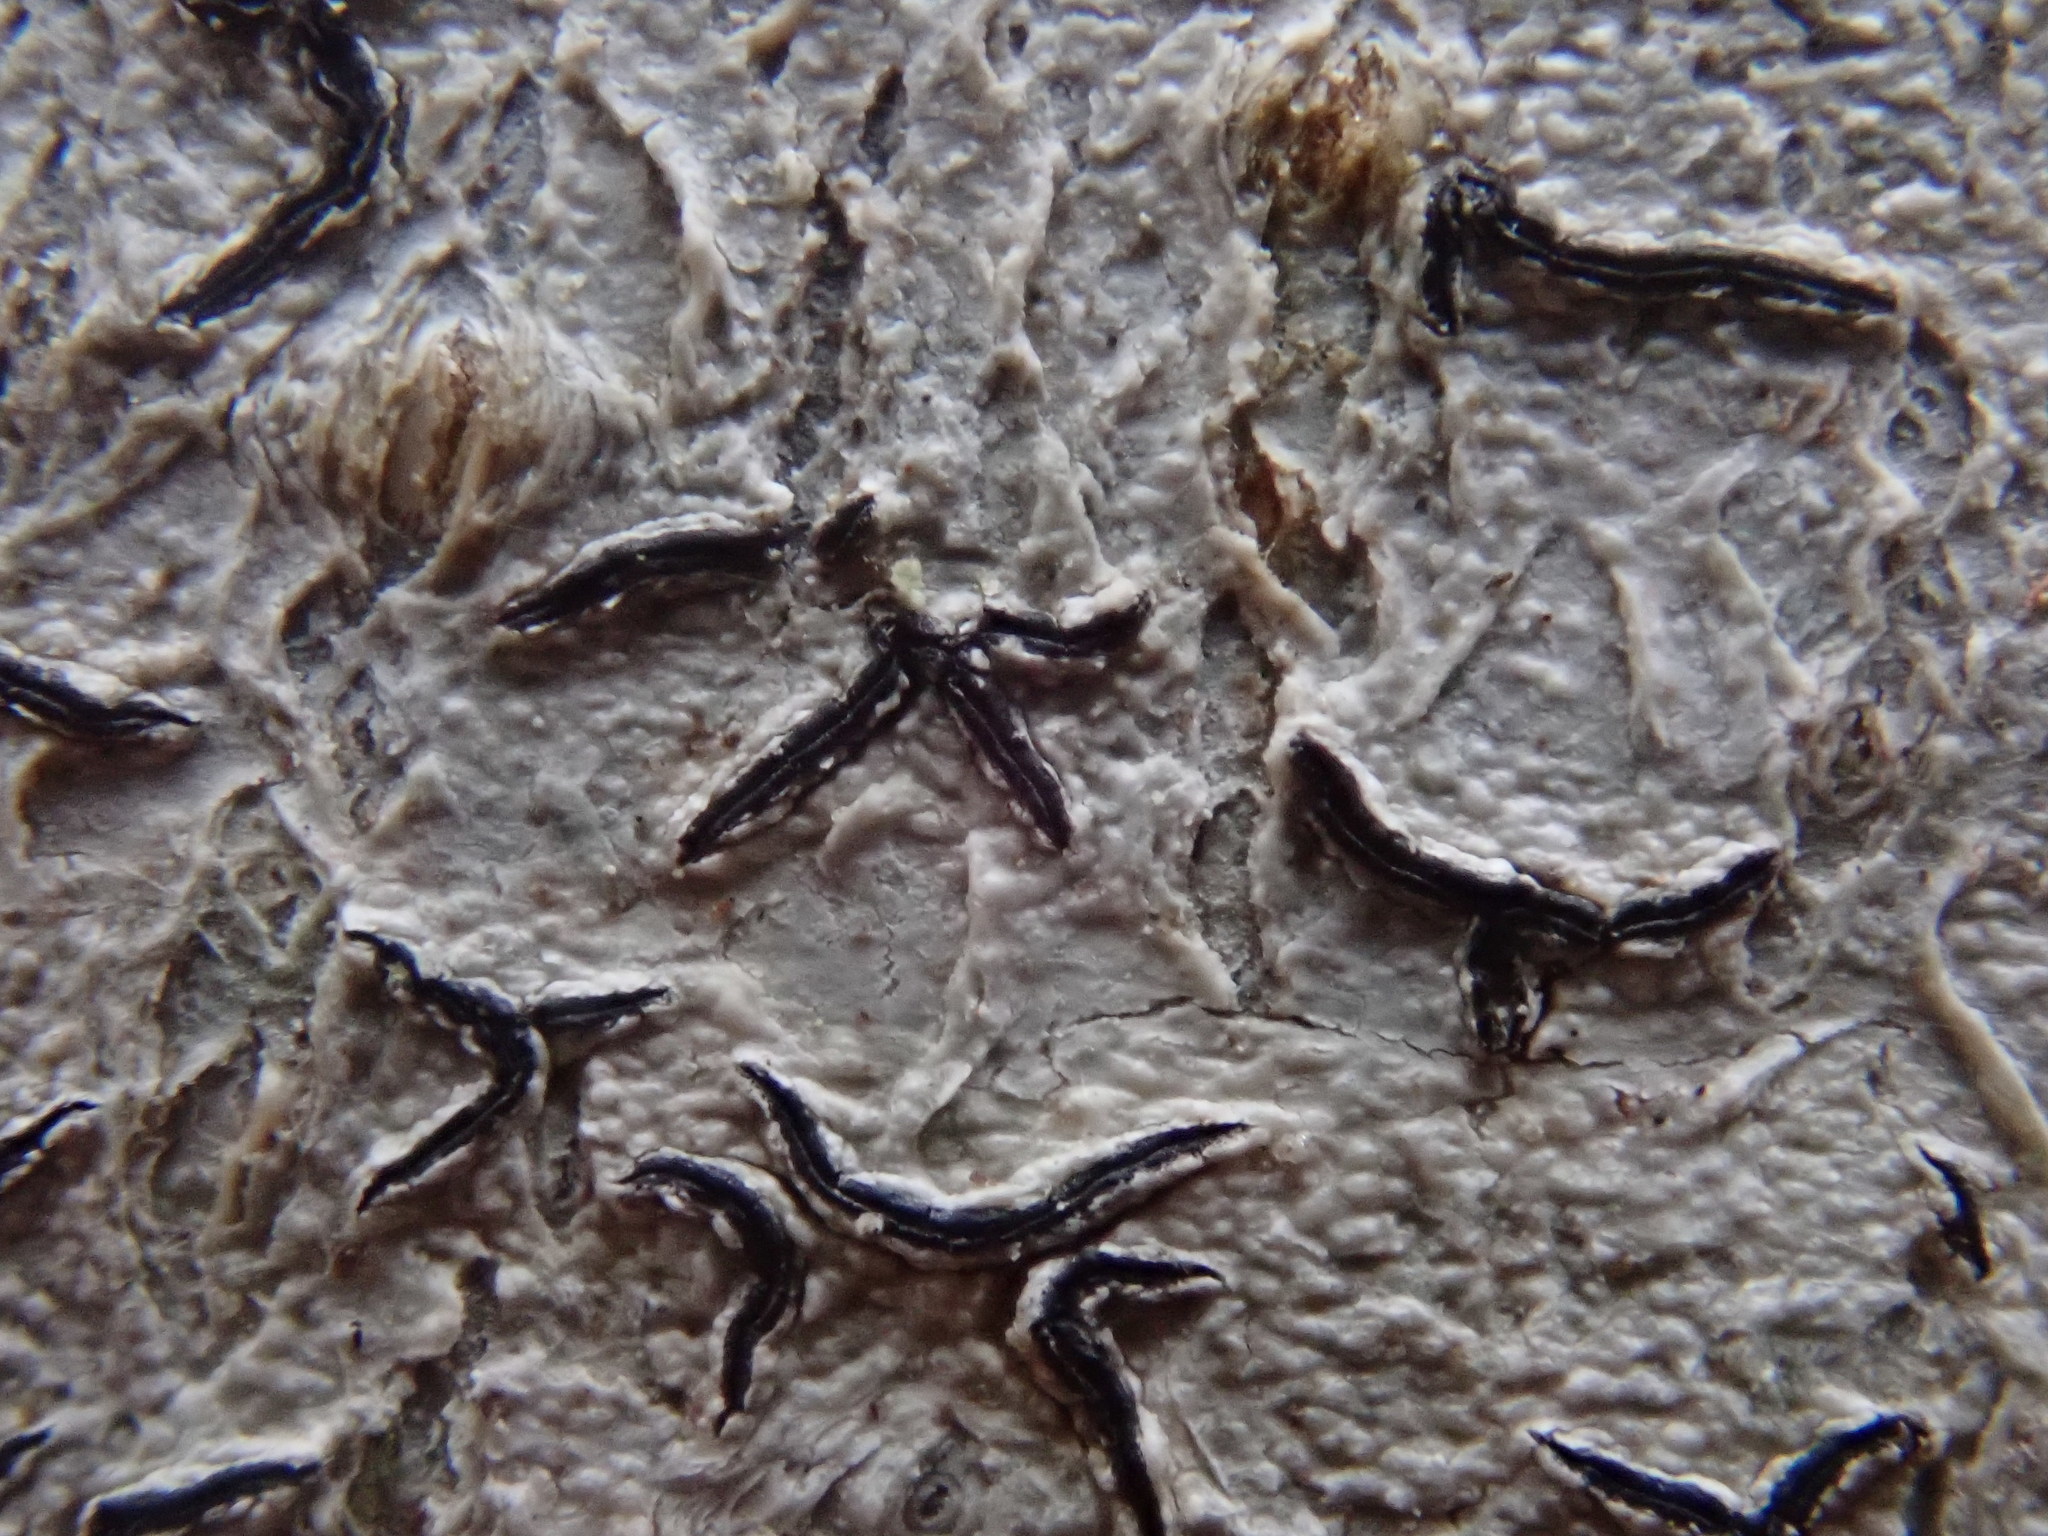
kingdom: Fungi
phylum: Ascomycota
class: Lecanoromycetes
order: Ostropales
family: Graphidaceae
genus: Graphis
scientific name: Graphis scripta
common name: Script lichen
